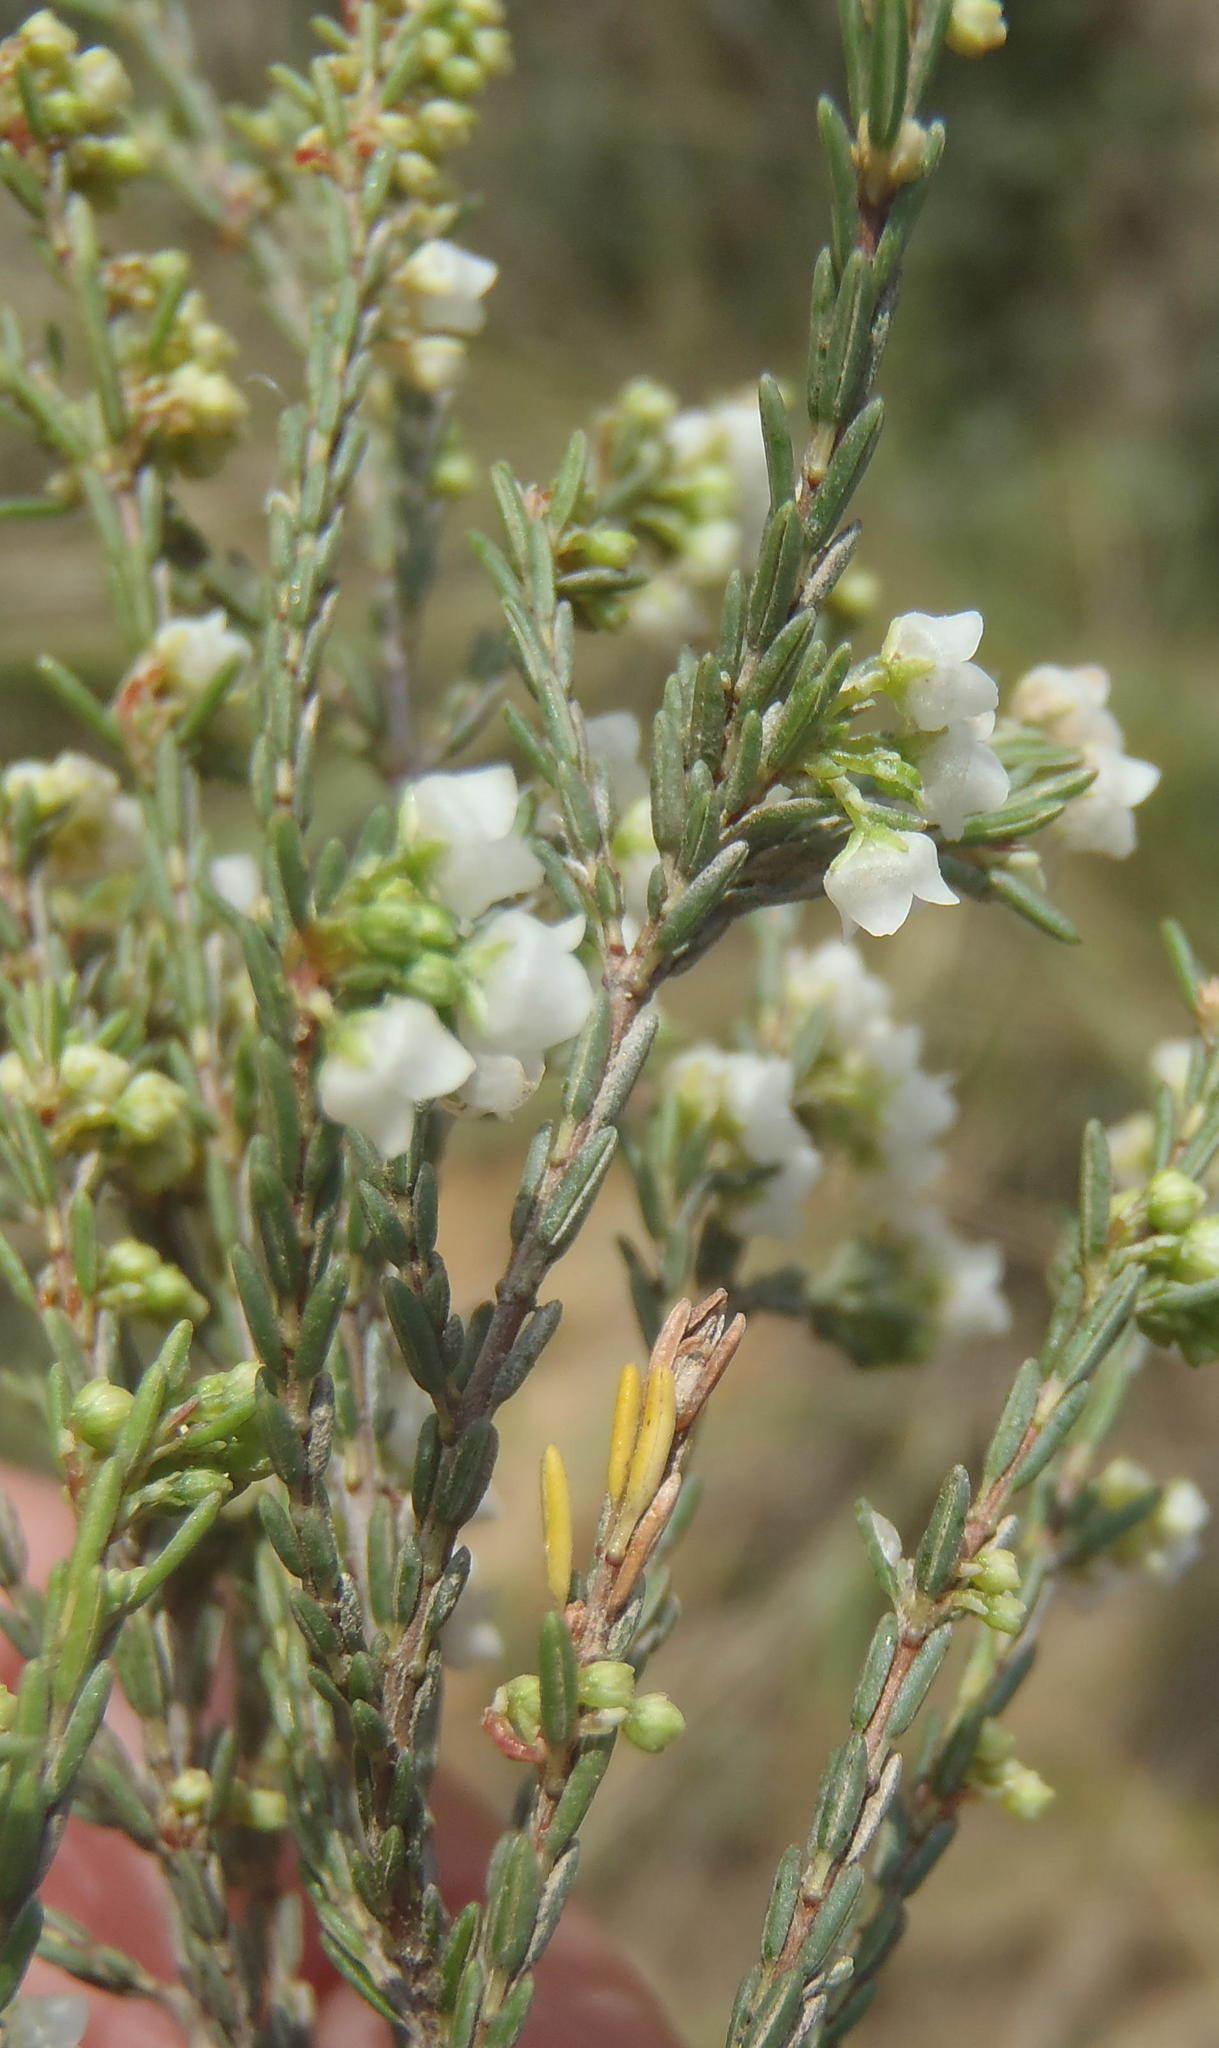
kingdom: Plantae
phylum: Tracheophyta
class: Magnoliopsida
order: Ericales
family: Ericaceae
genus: Erica
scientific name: Erica tenuis
